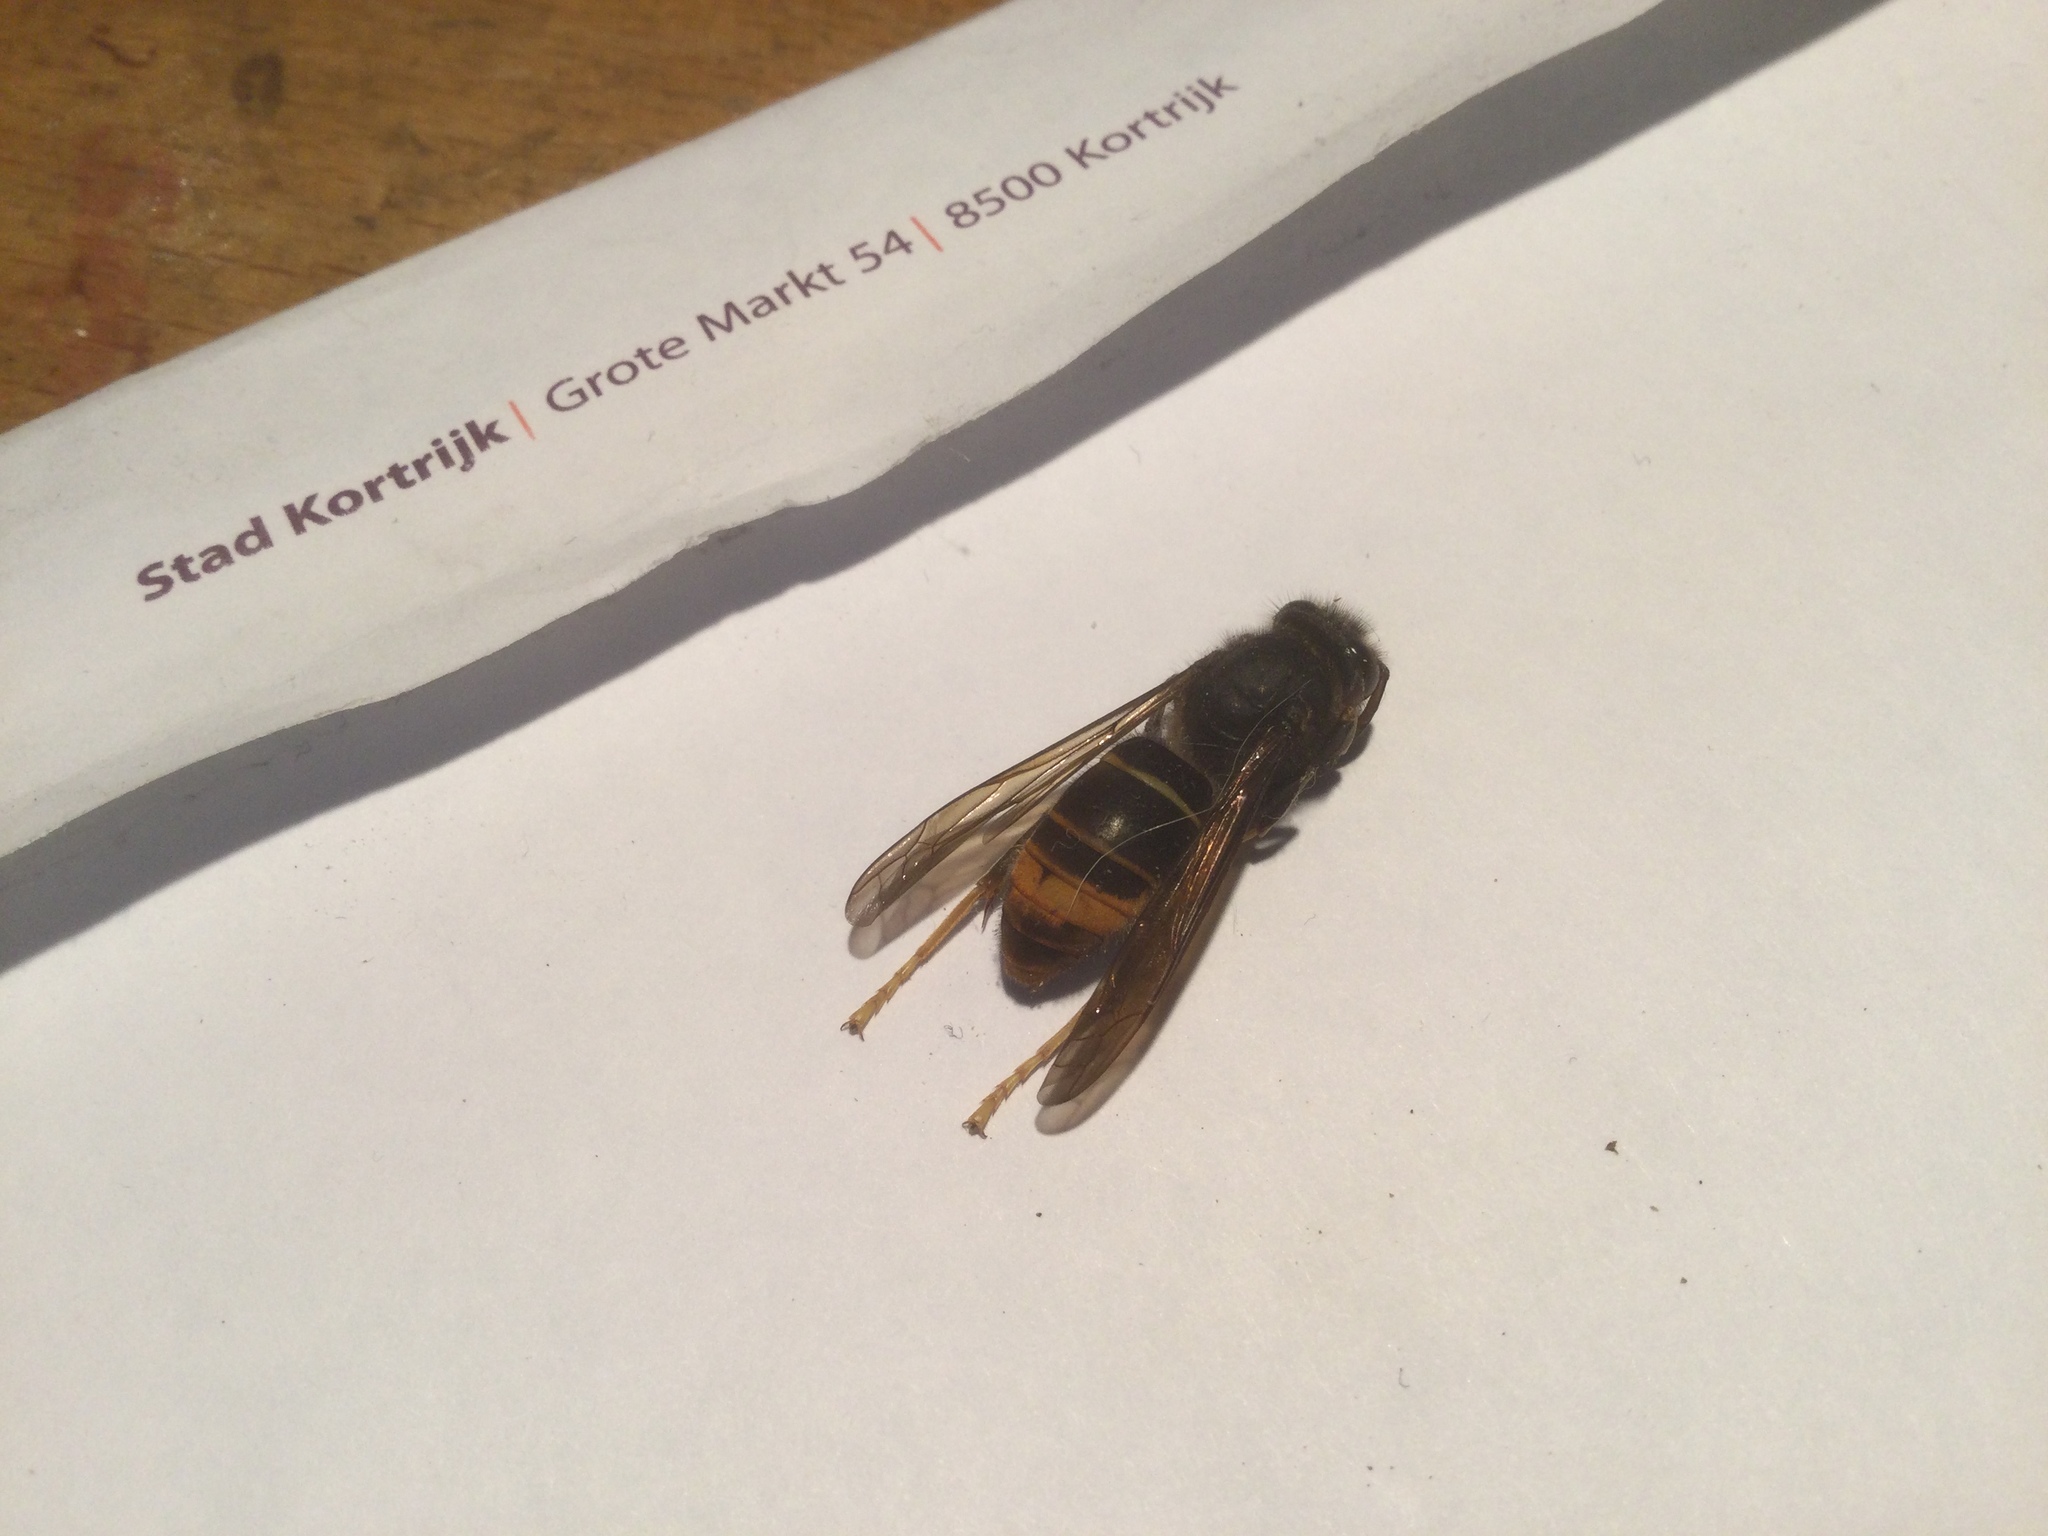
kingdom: Animalia
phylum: Arthropoda
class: Insecta
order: Hymenoptera
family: Vespidae
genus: Vespa
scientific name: Vespa velutina
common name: Asian hornet
